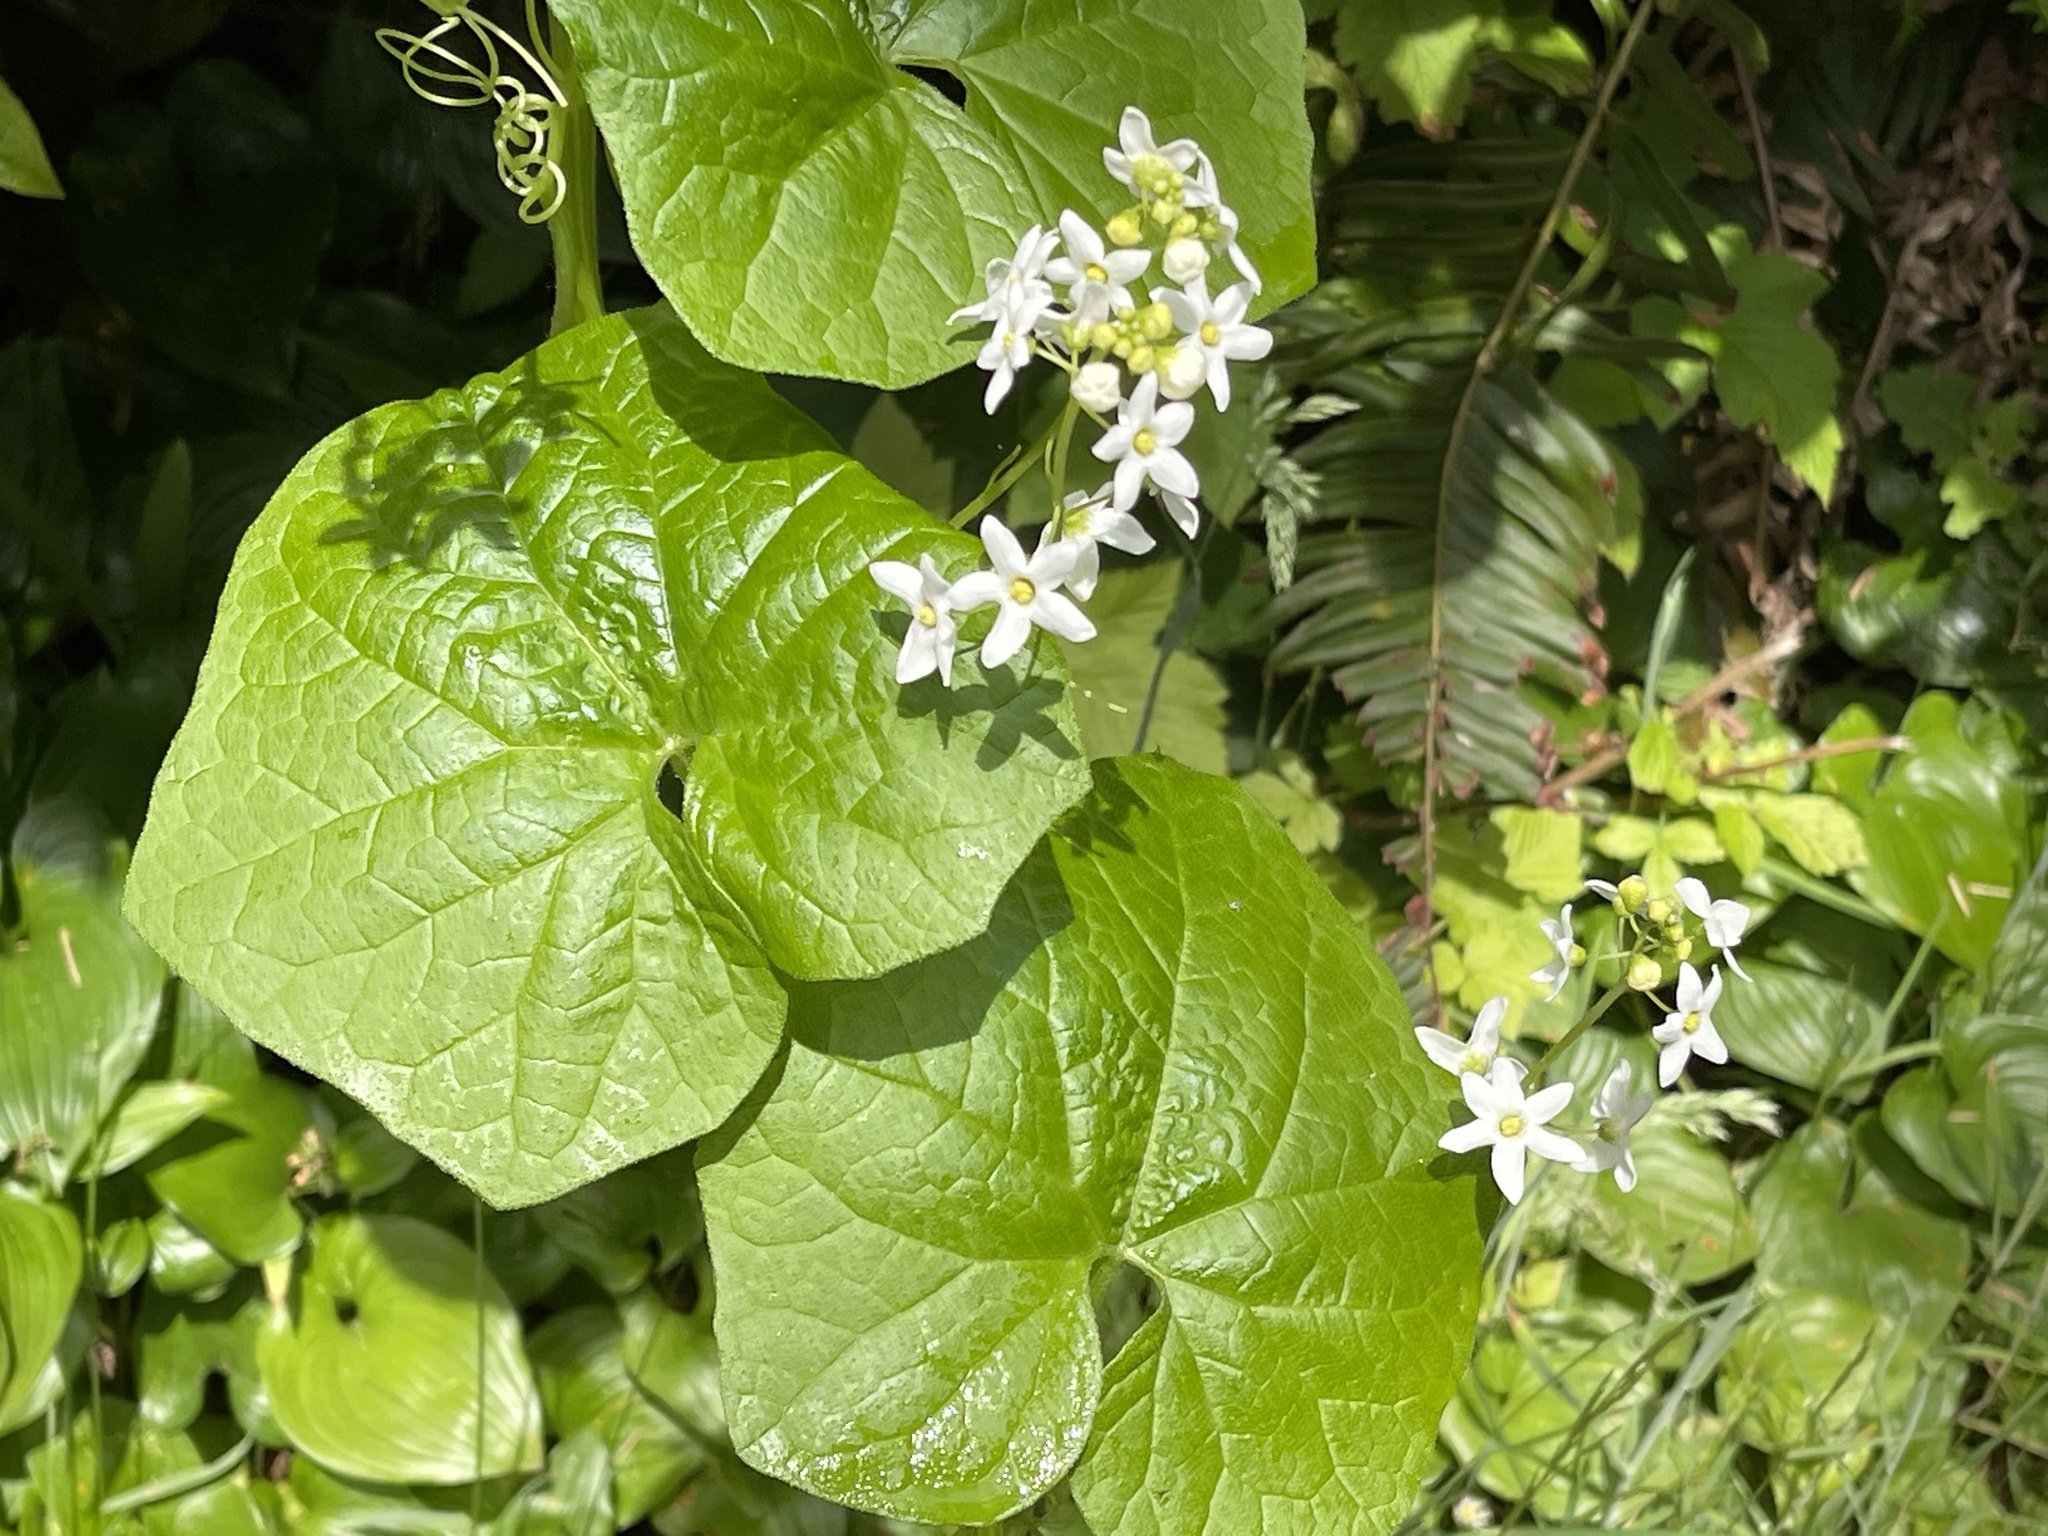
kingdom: Plantae
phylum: Tracheophyta
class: Magnoliopsida
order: Cucurbitales
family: Cucurbitaceae
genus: Marah
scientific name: Marah oregana
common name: Coastal manroot
